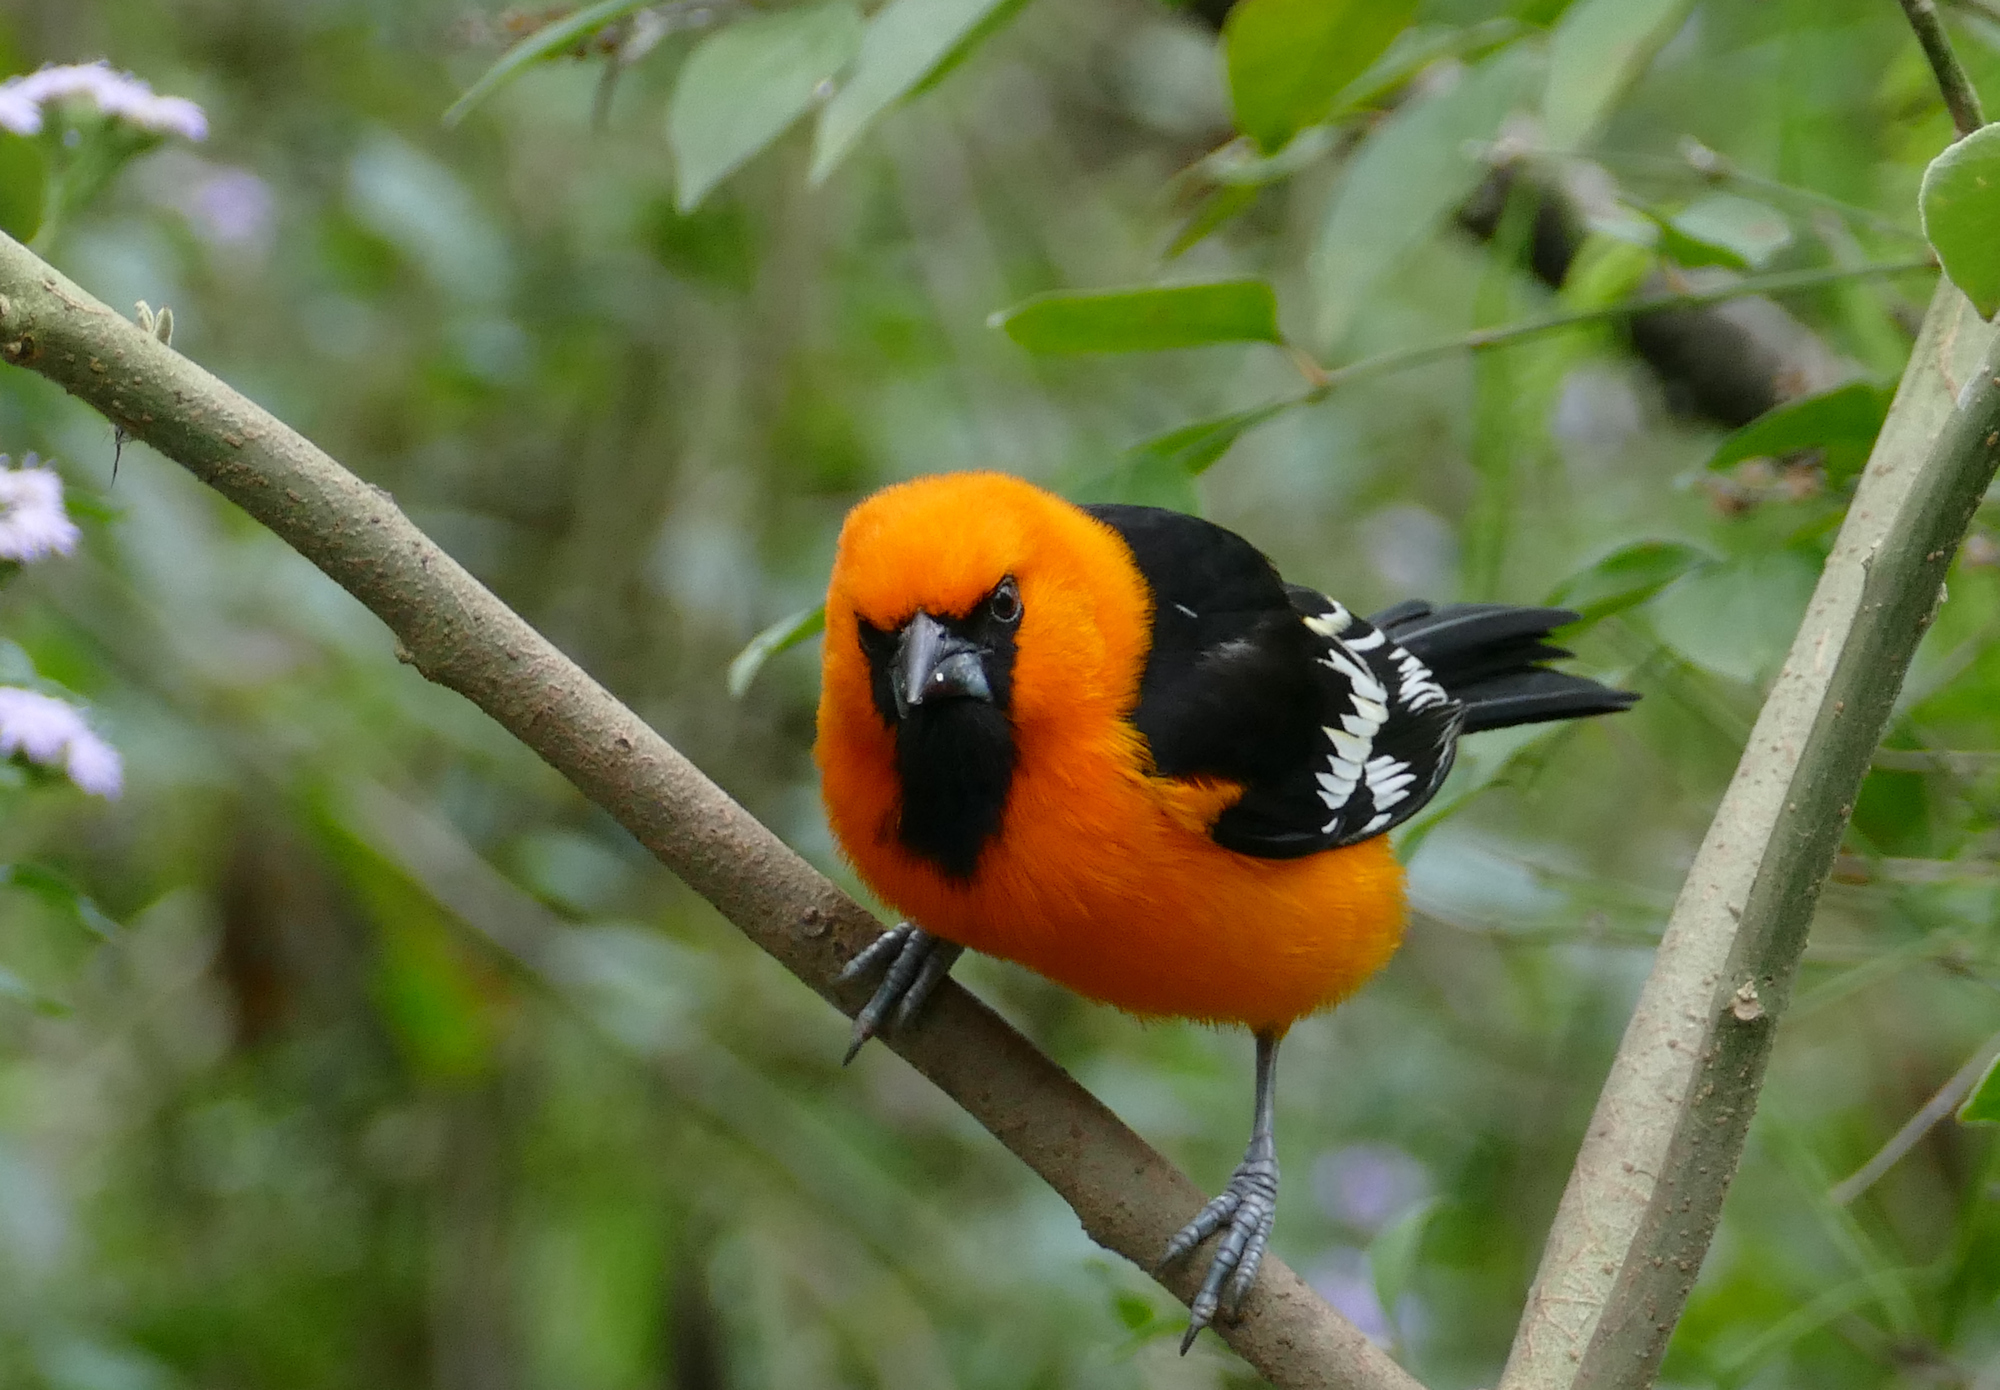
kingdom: Animalia
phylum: Chordata
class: Aves
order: Passeriformes
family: Icteridae
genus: Icterus
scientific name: Icterus gularis
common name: Altamira oriole
